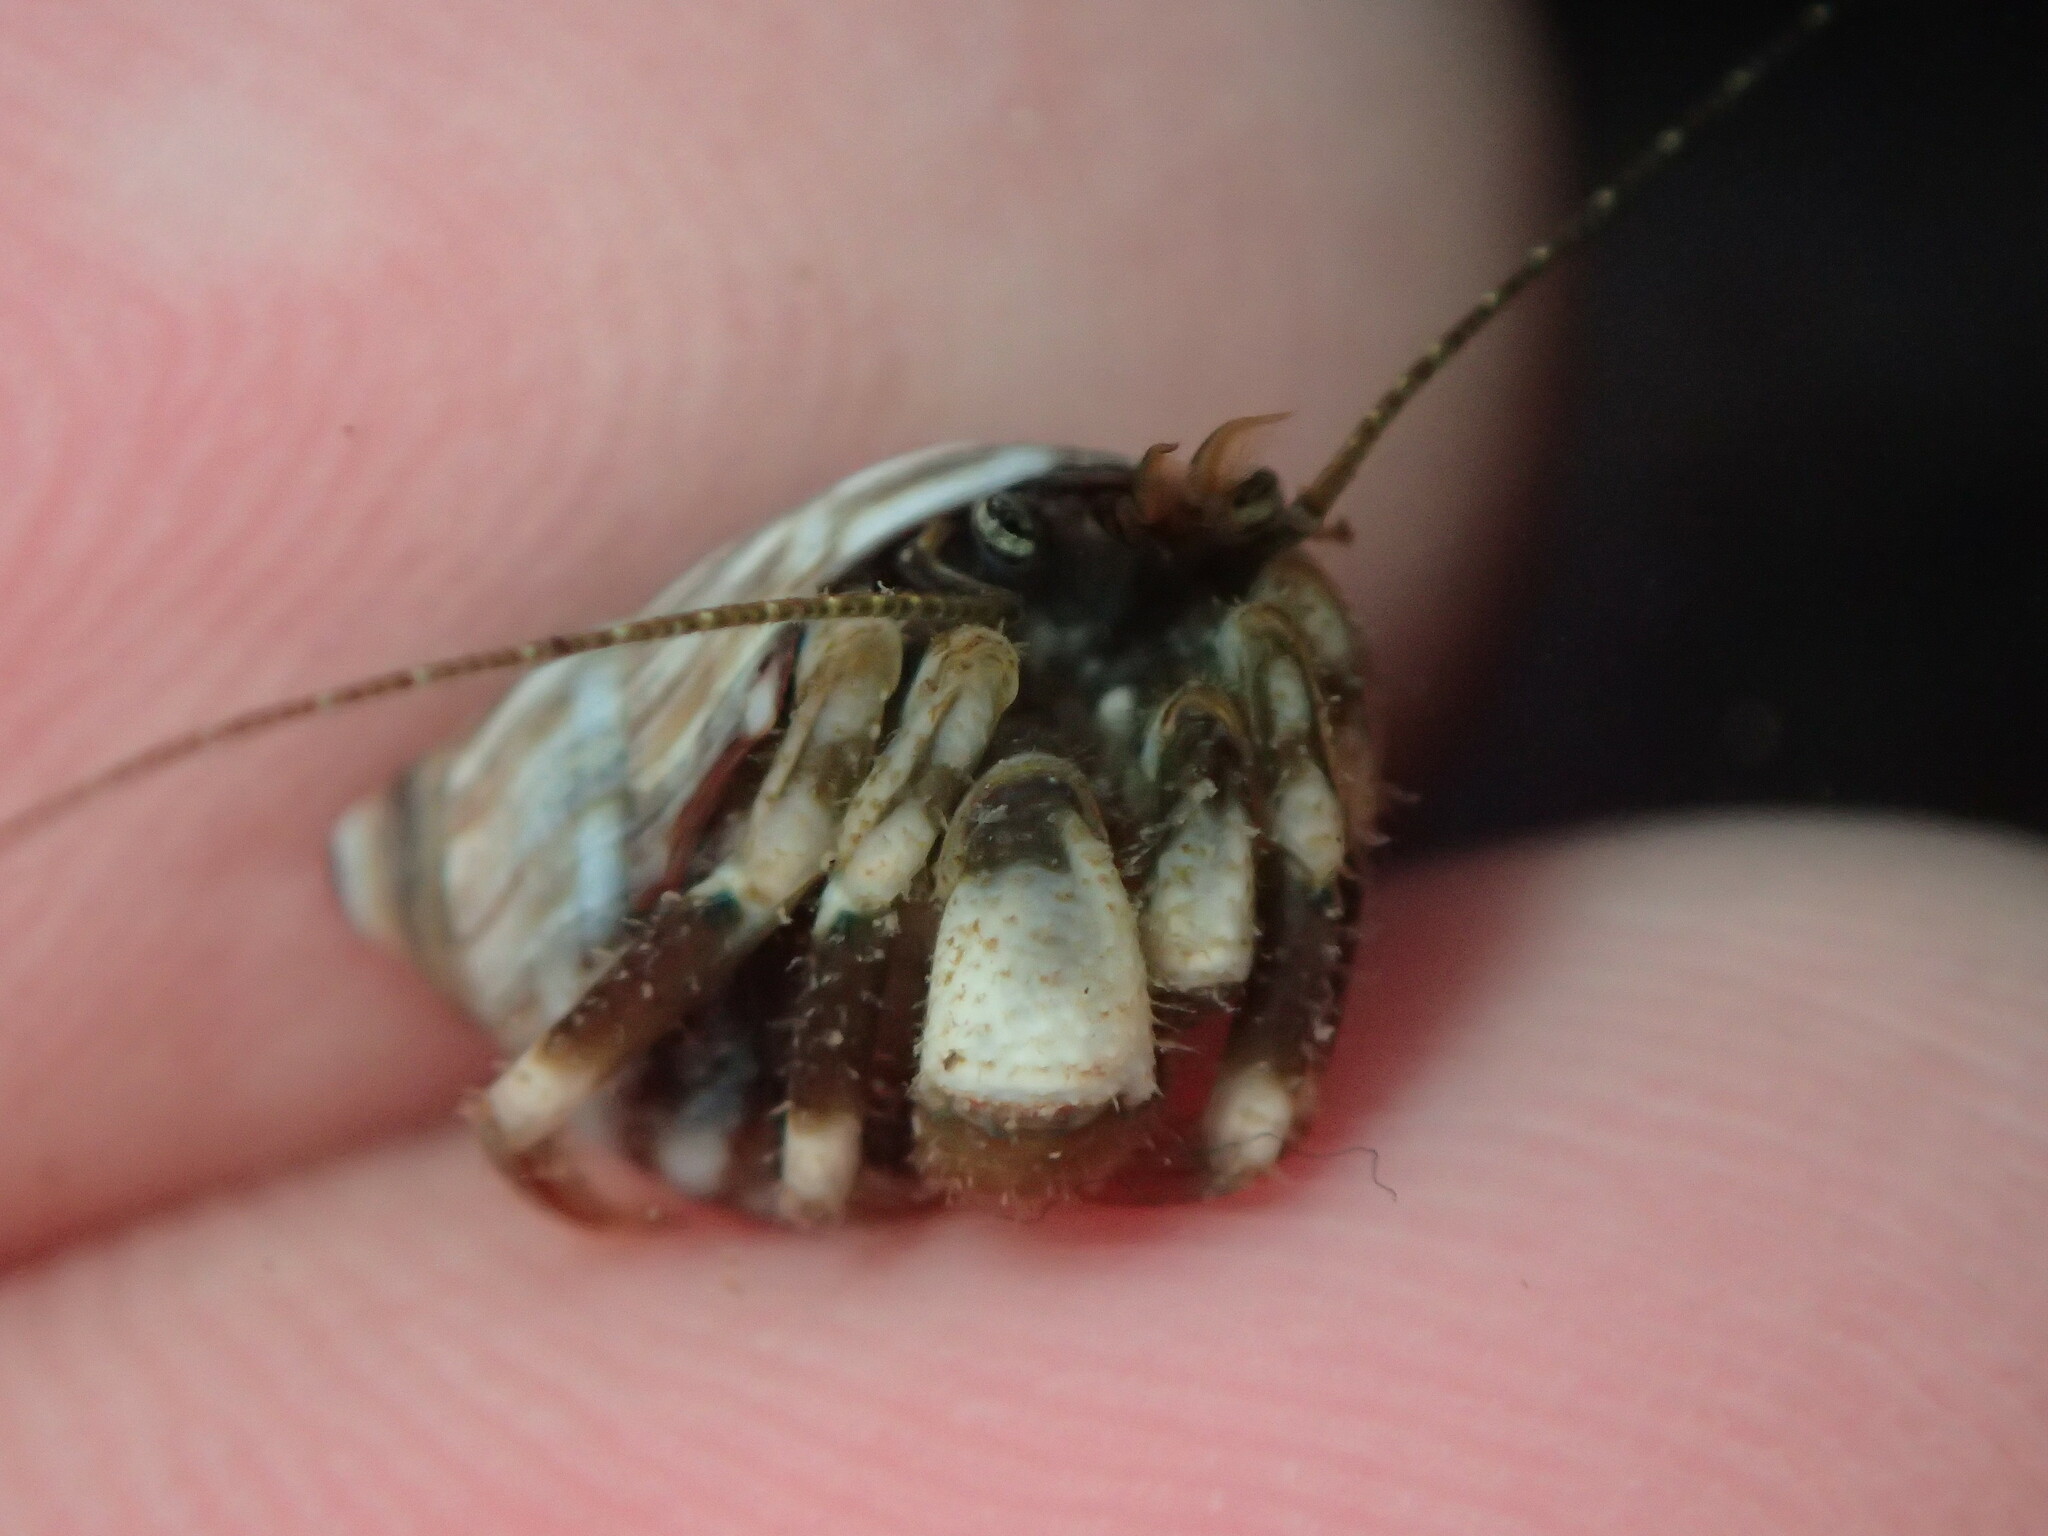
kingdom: Animalia
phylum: Arthropoda
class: Malacostraca
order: Decapoda
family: Paguridae
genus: Pagurus
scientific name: Pagurus hirsutiusculus
